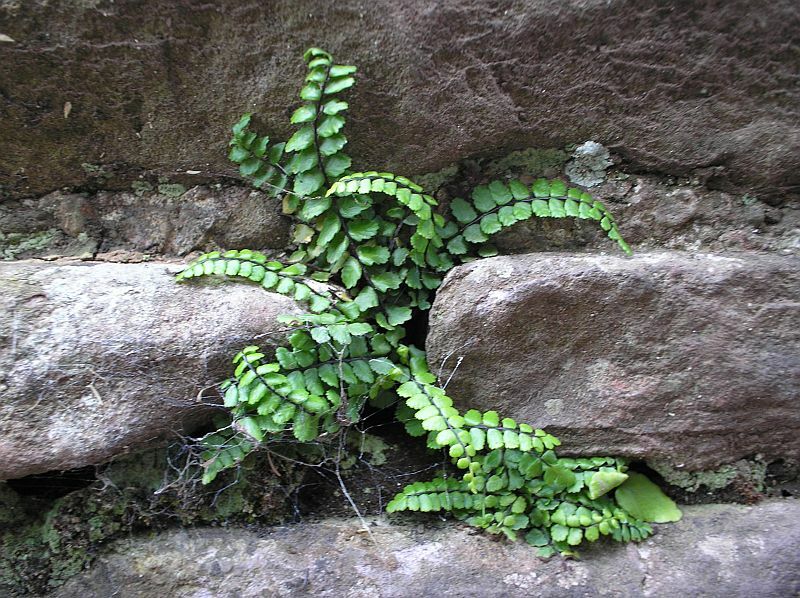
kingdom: Plantae
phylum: Tracheophyta
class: Polypodiopsida
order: Polypodiales
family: Aspleniaceae
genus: Asplenium
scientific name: Asplenium trichomanes
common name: Maidenhair spleenwort
